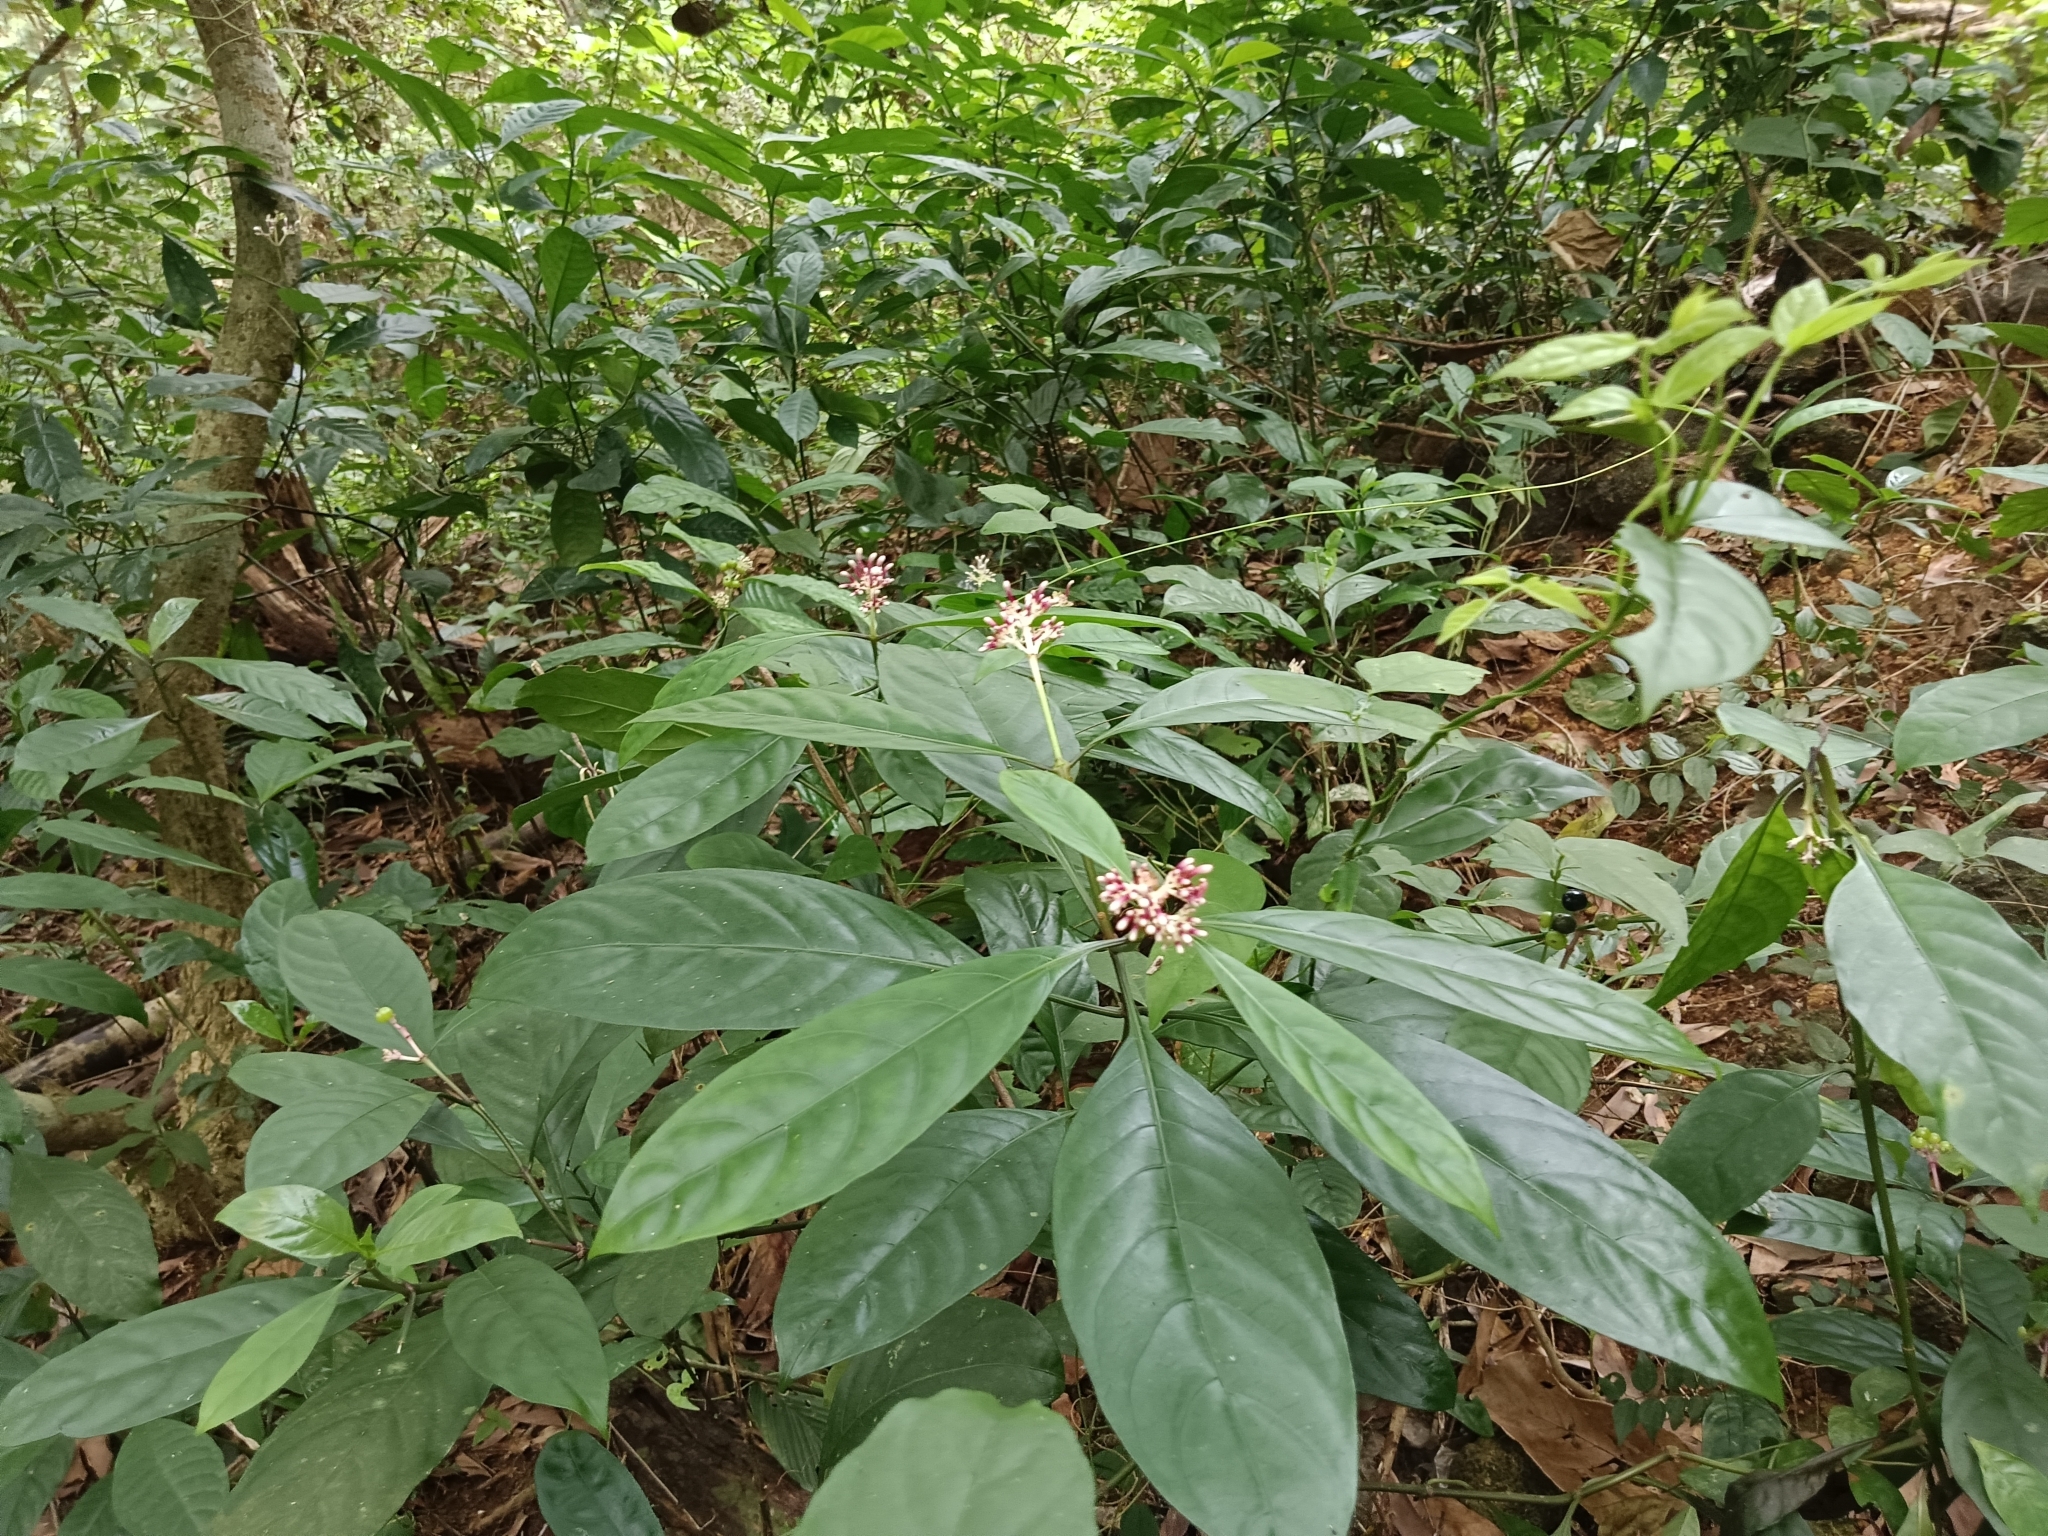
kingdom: Plantae
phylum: Tracheophyta
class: Magnoliopsida
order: Gentianales
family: Rubiaceae
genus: Chassalia
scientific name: Chassalia curviflora
